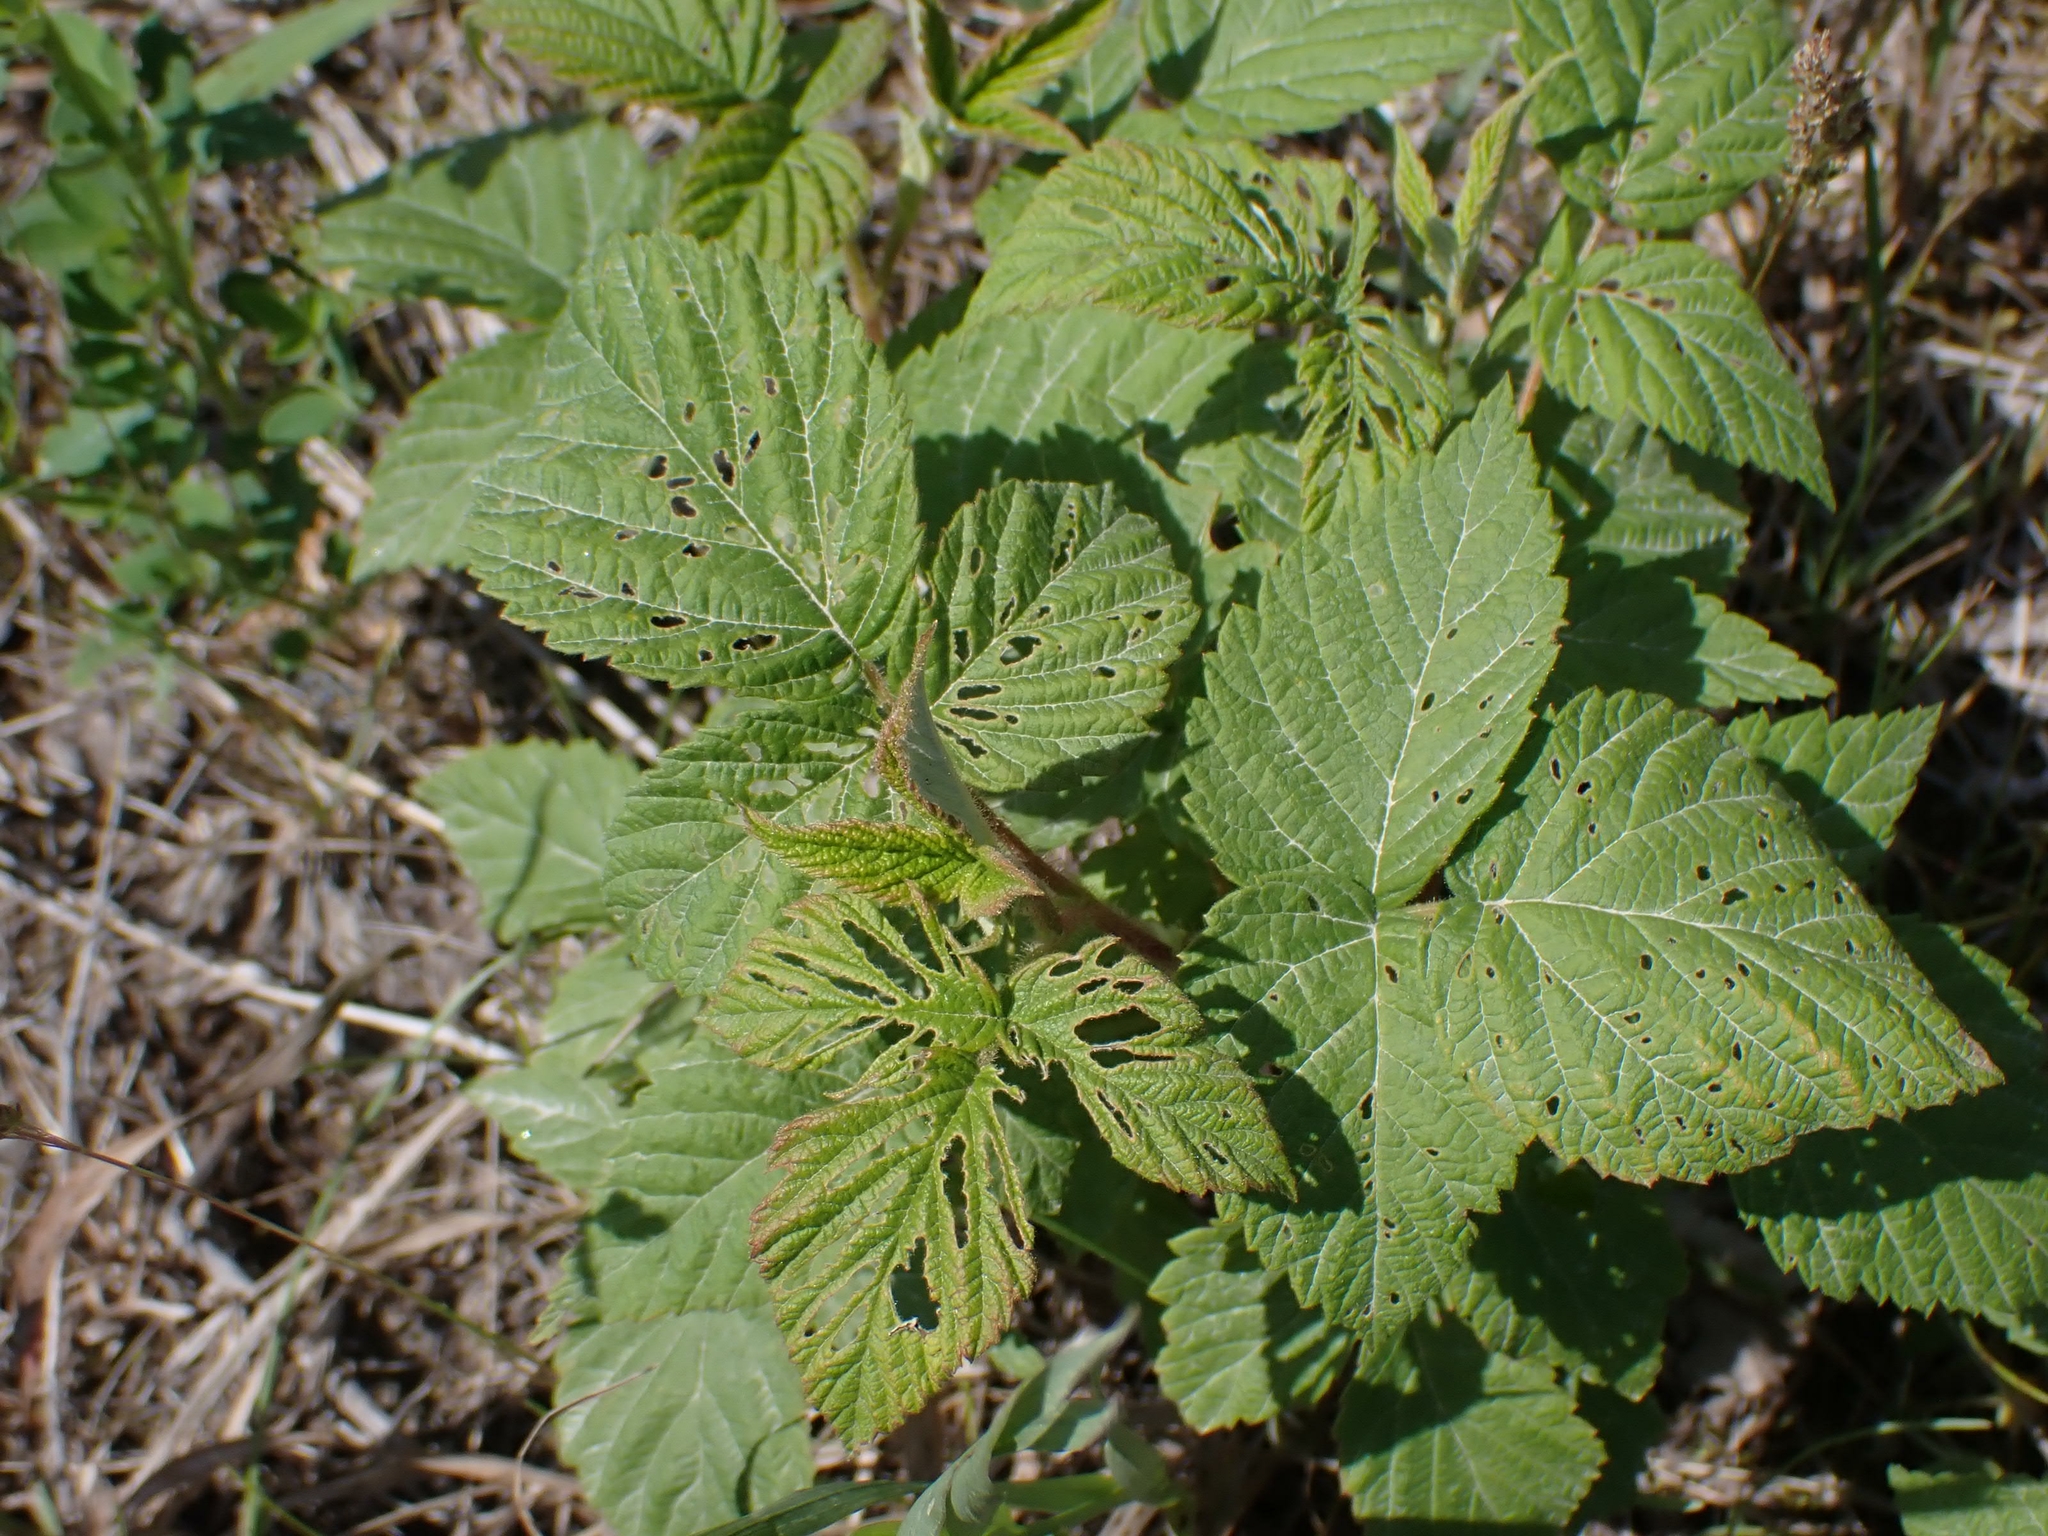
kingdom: Plantae
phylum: Tracheophyta
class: Magnoliopsida
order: Rosales
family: Rosaceae
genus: Rubus
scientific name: Rubus idaeus
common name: Raspberry
